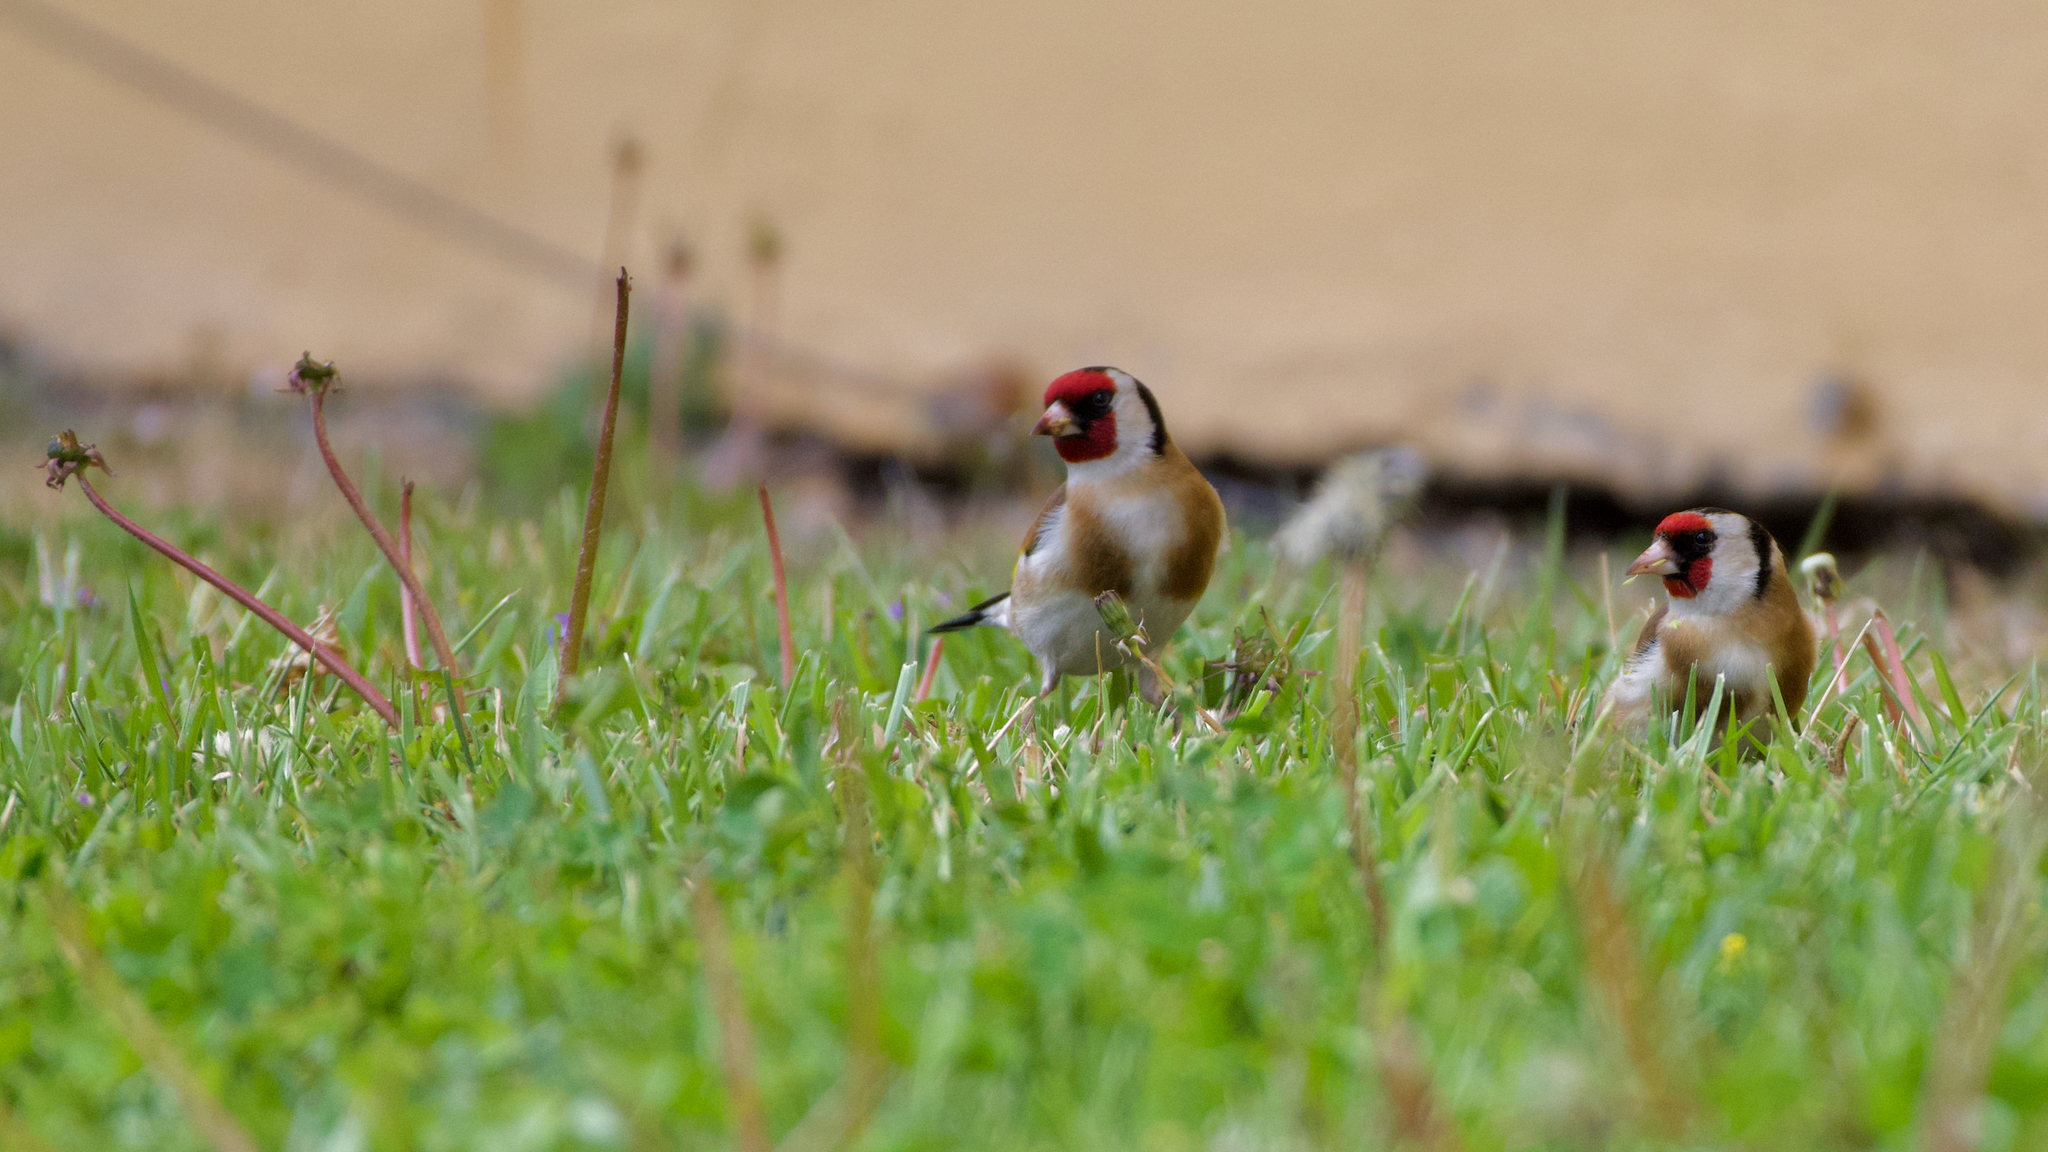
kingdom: Animalia
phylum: Chordata
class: Aves
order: Passeriformes
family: Fringillidae
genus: Carduelis
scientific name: Carduelis carduelis
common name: European goldfinch
